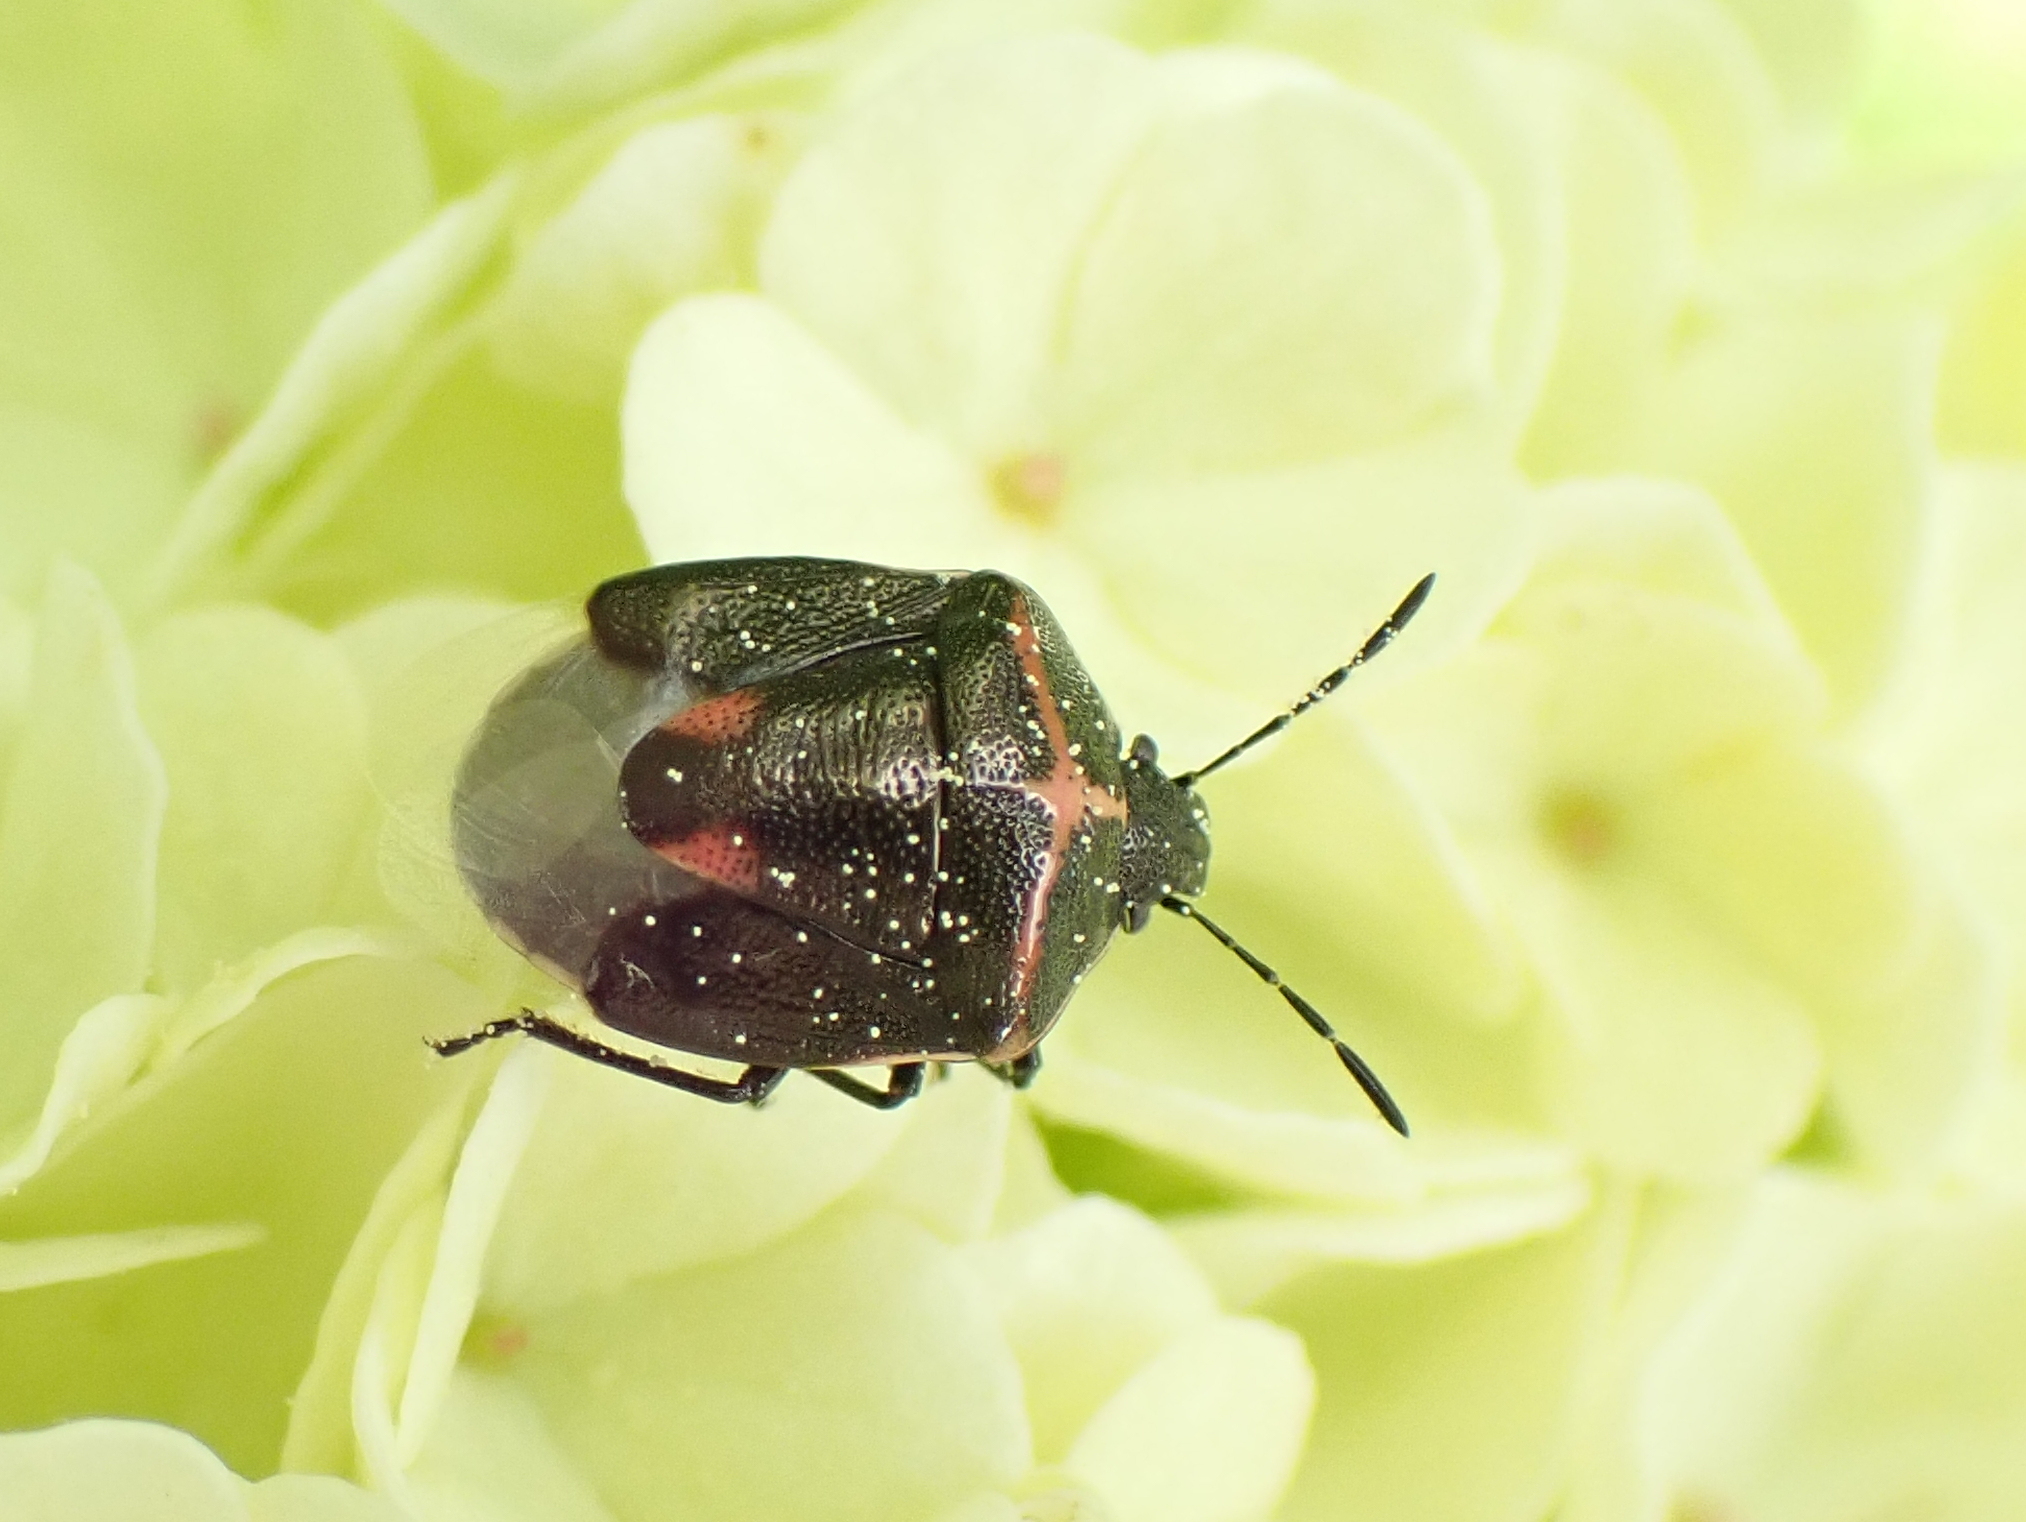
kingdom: Animalia
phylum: Arthropoda
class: Insecta
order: Hemiptera
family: Pentatomidae
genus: Cosmopepla
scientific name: Cosmopepla lintneriana
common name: Twice-stabbed stink bug
